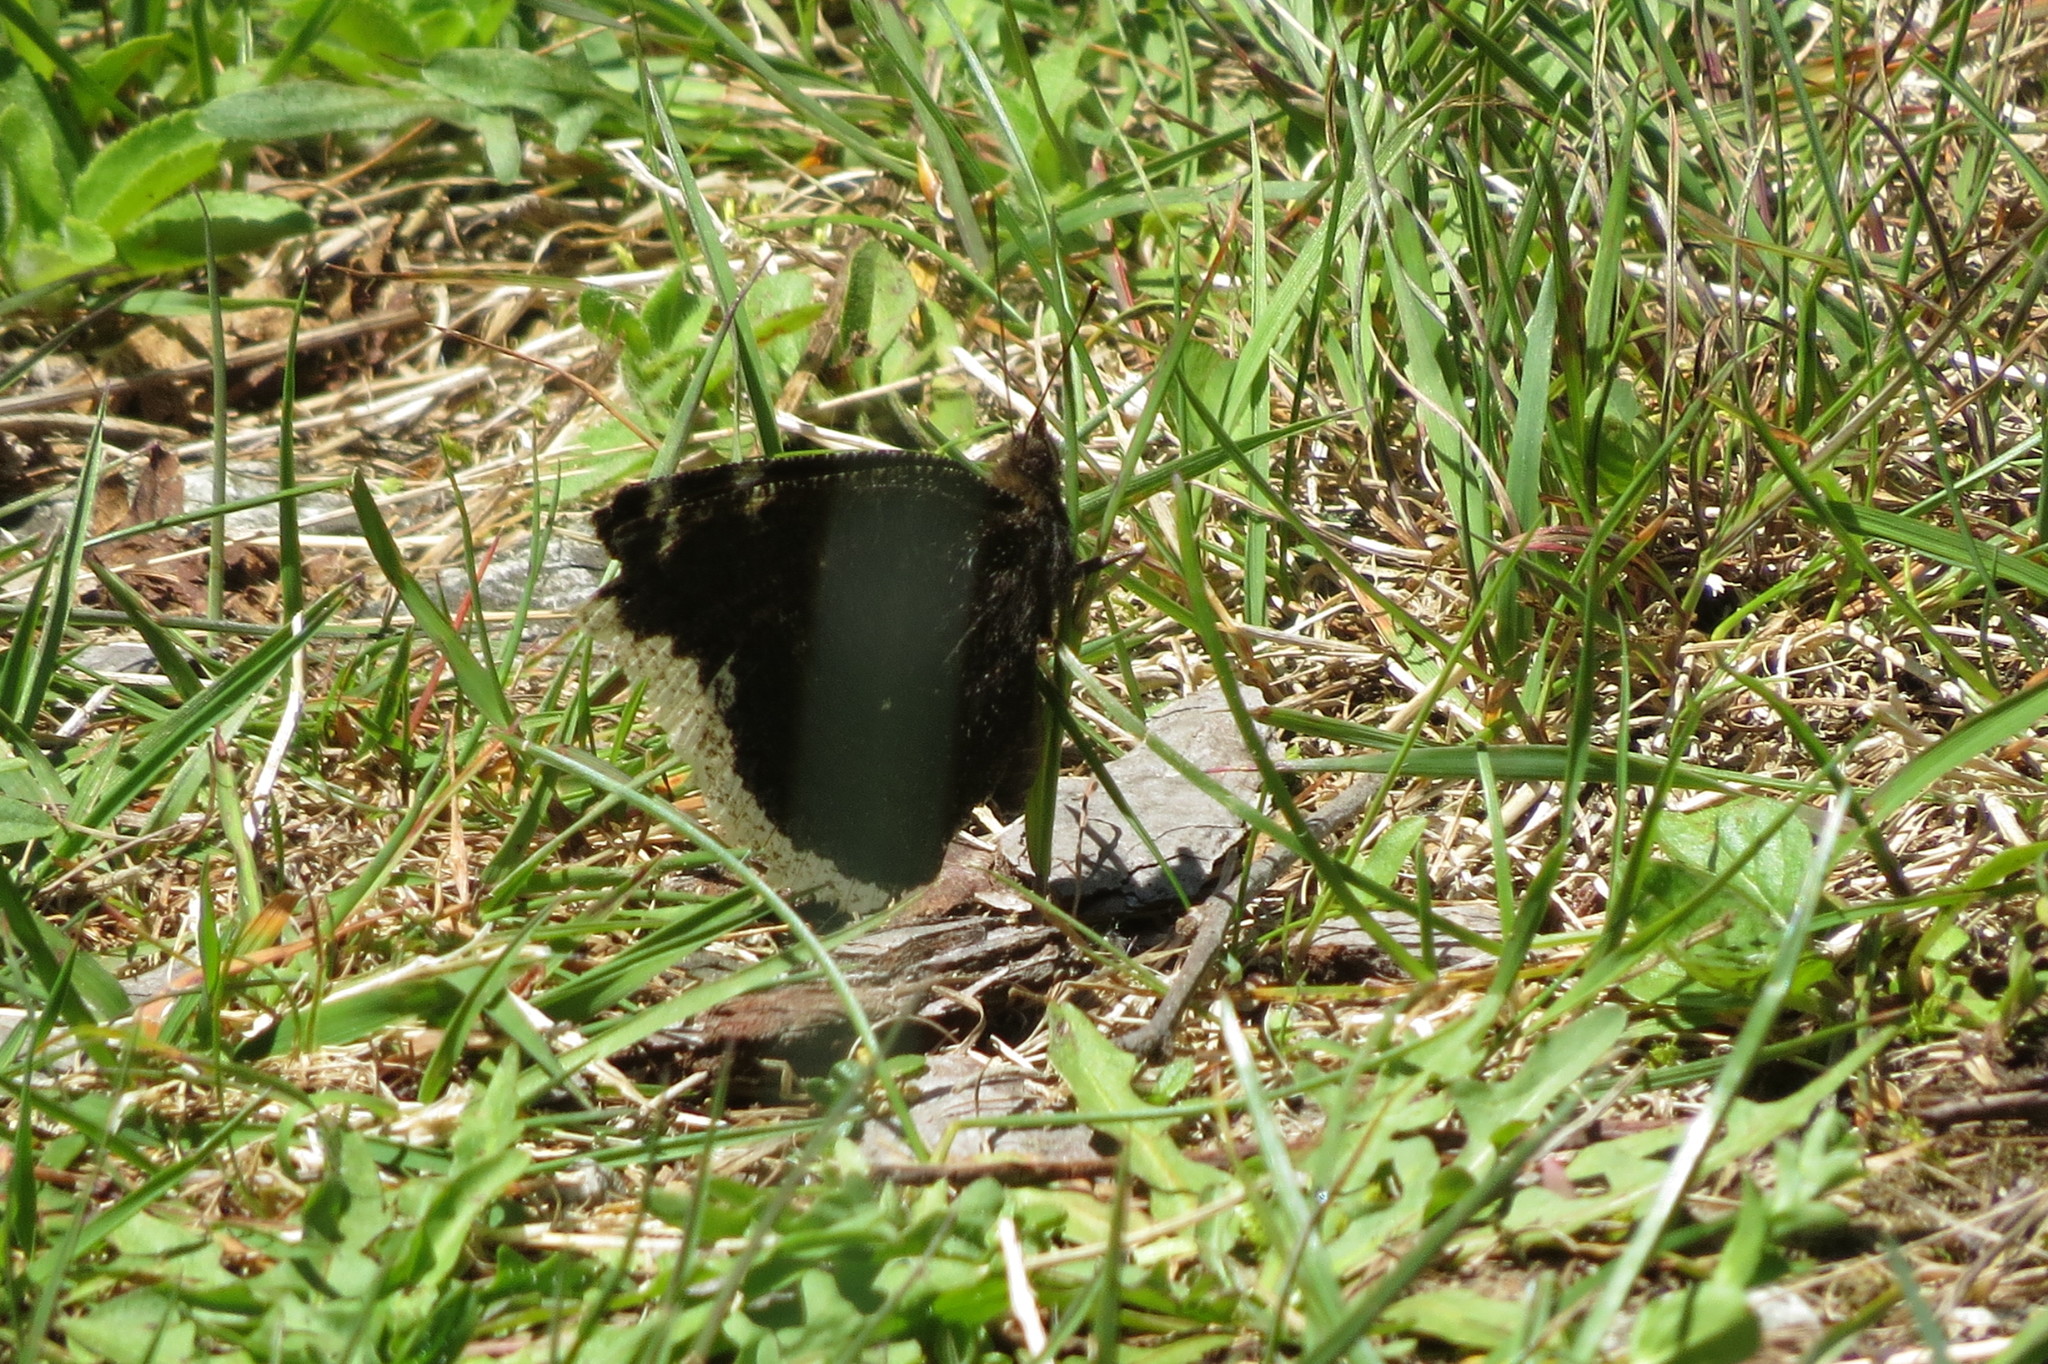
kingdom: Animalia
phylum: Arthropoda
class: Insecta
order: Lepidoptera
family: Nymphalidae
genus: Nymphalis
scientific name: Nymphalis antiopa
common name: Camberwell beauty
